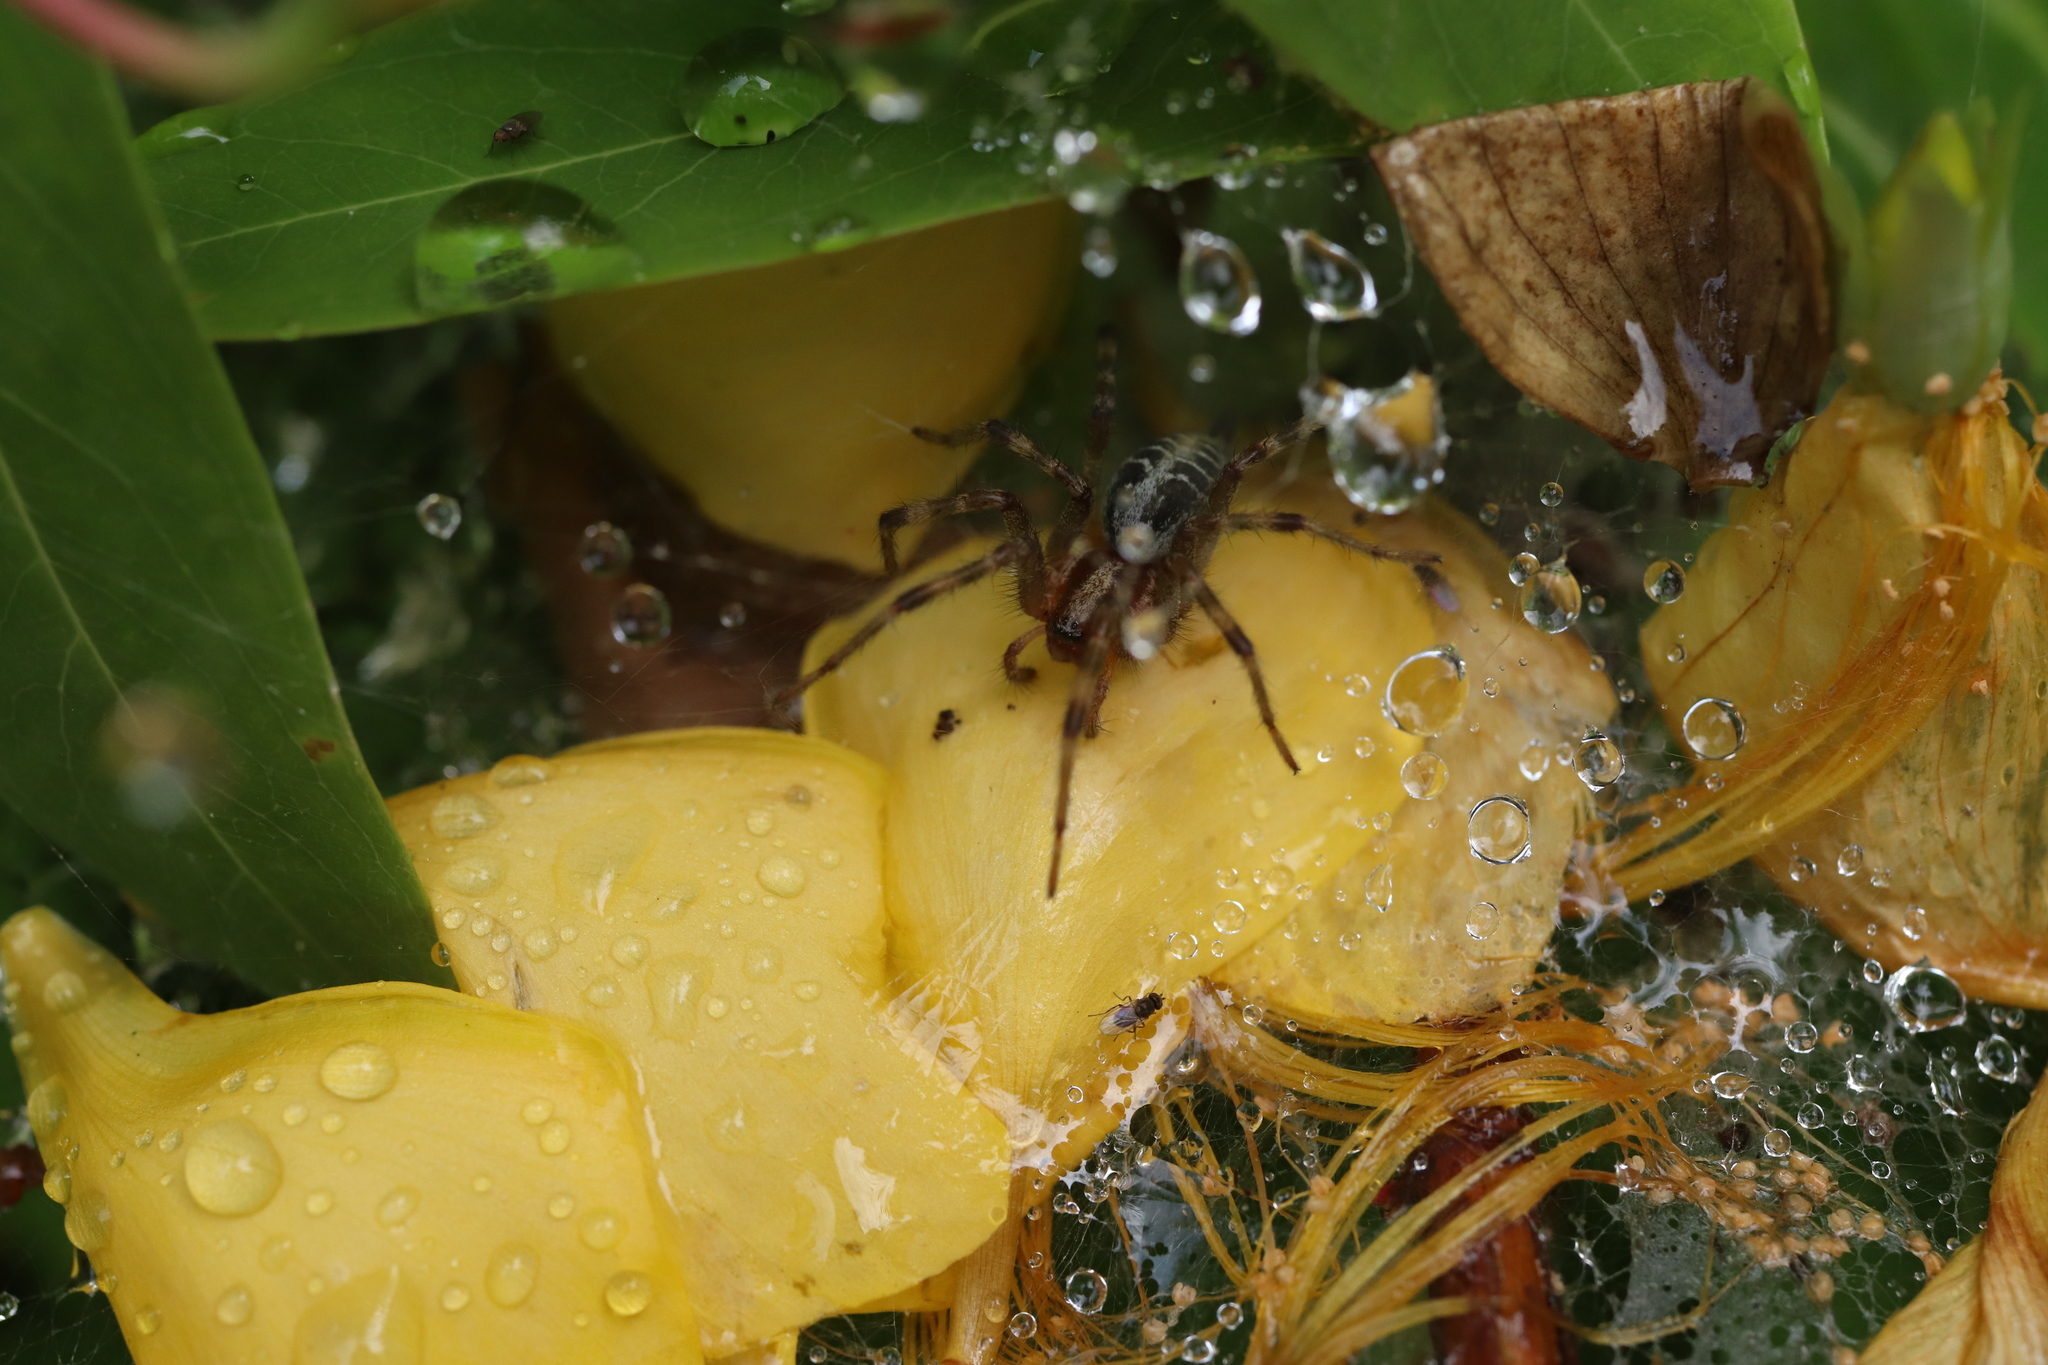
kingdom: Animalia
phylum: Arthropoda
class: Arachnida
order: Araneae
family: Agelenidae
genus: Agelena
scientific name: Agelena silvatica
